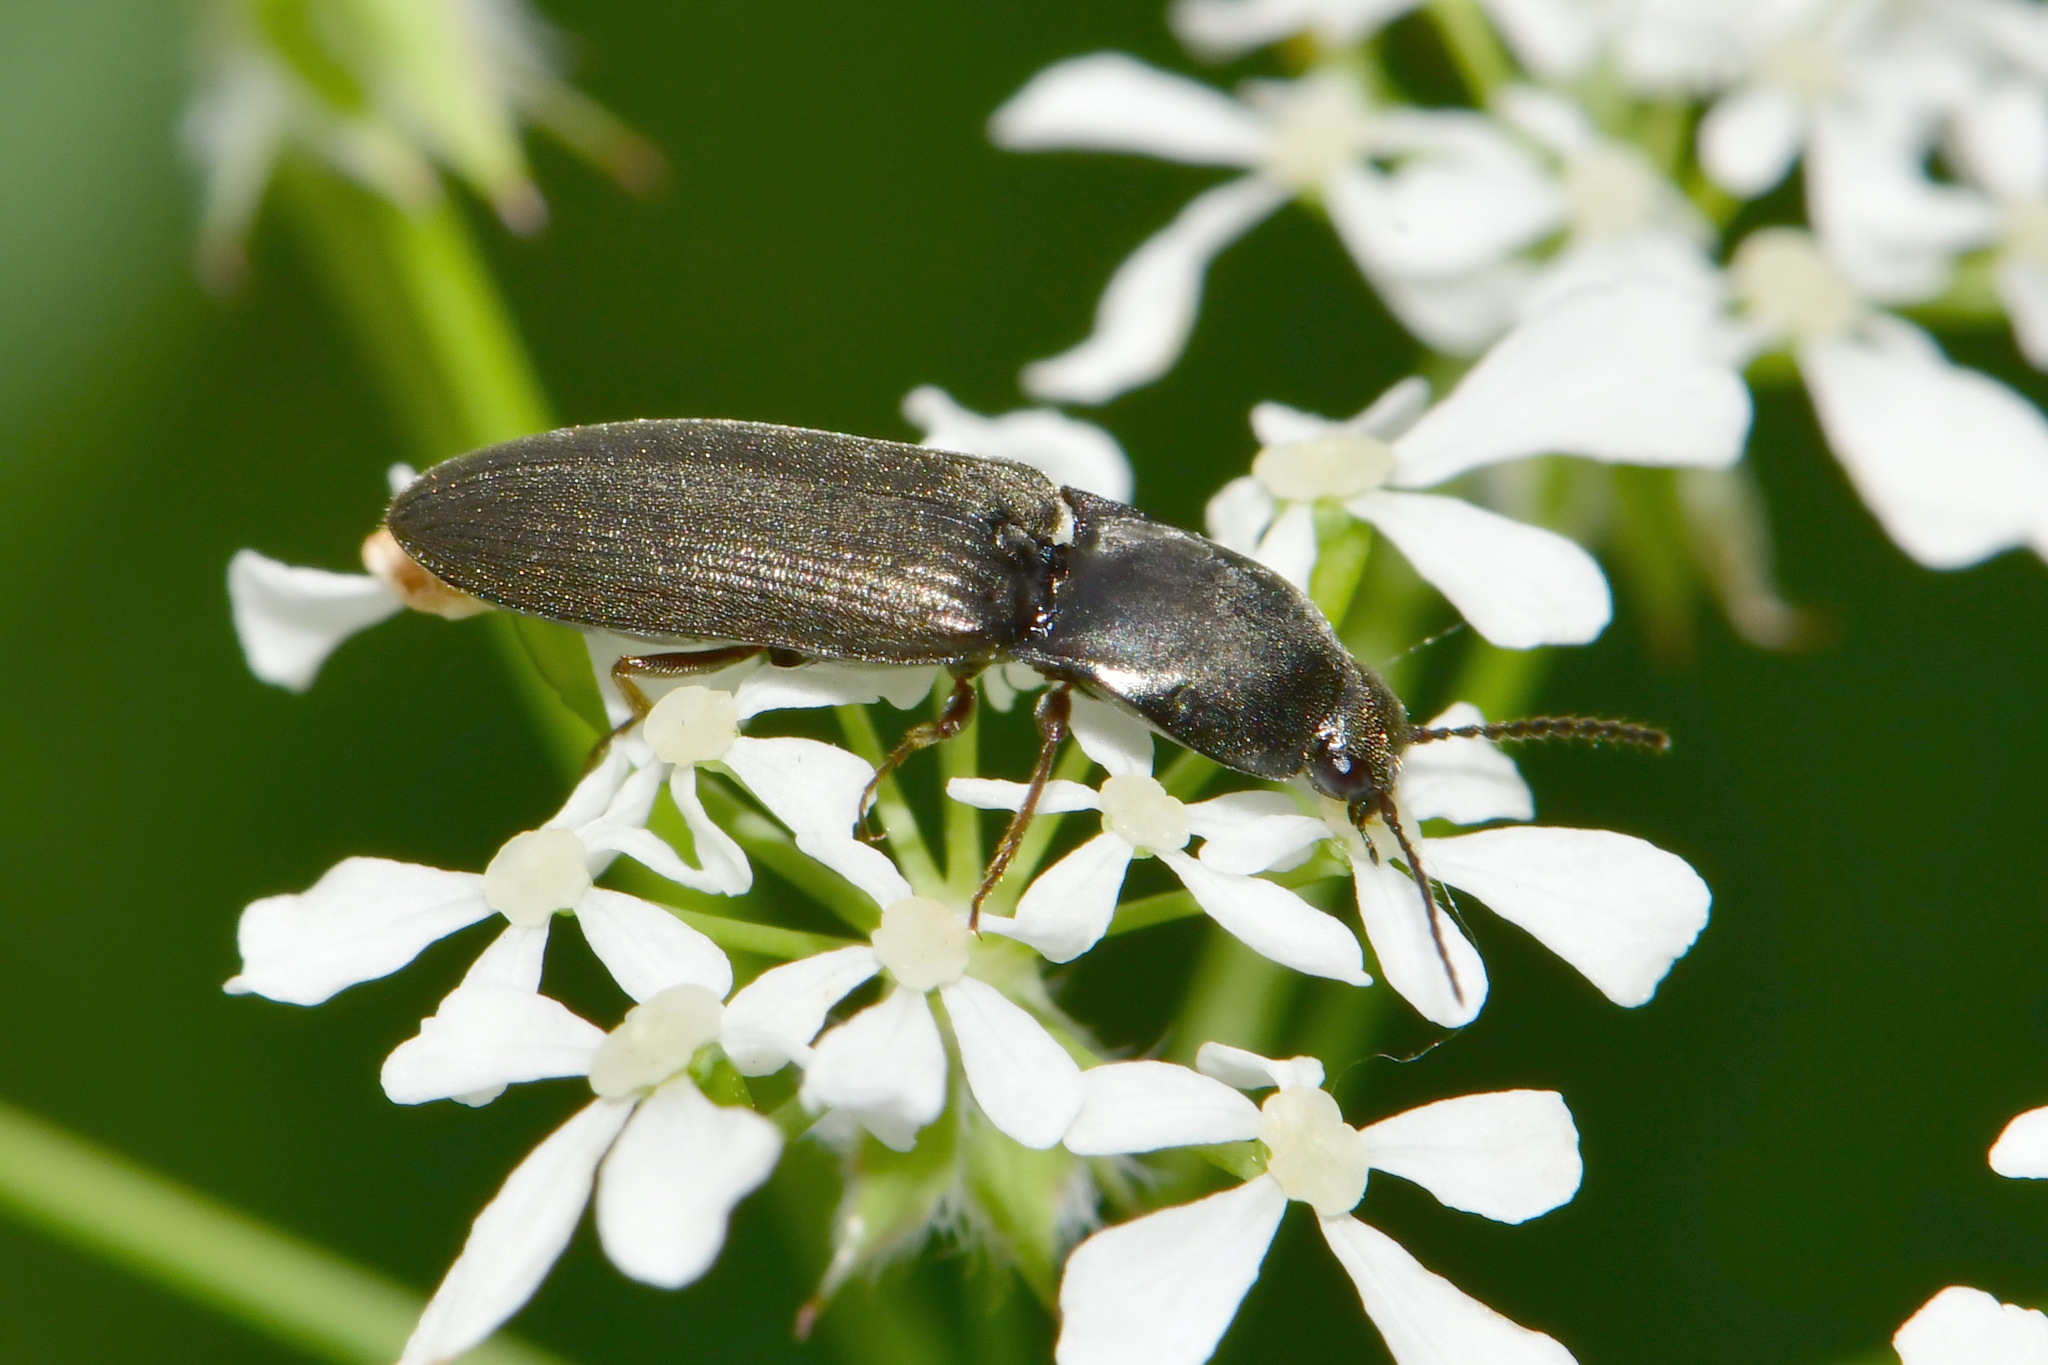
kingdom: Animalia
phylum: Arthropoda
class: Insecta
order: Coleoptera
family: Elateridae
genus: Aplotarsus
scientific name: Aplotarsus incanus
